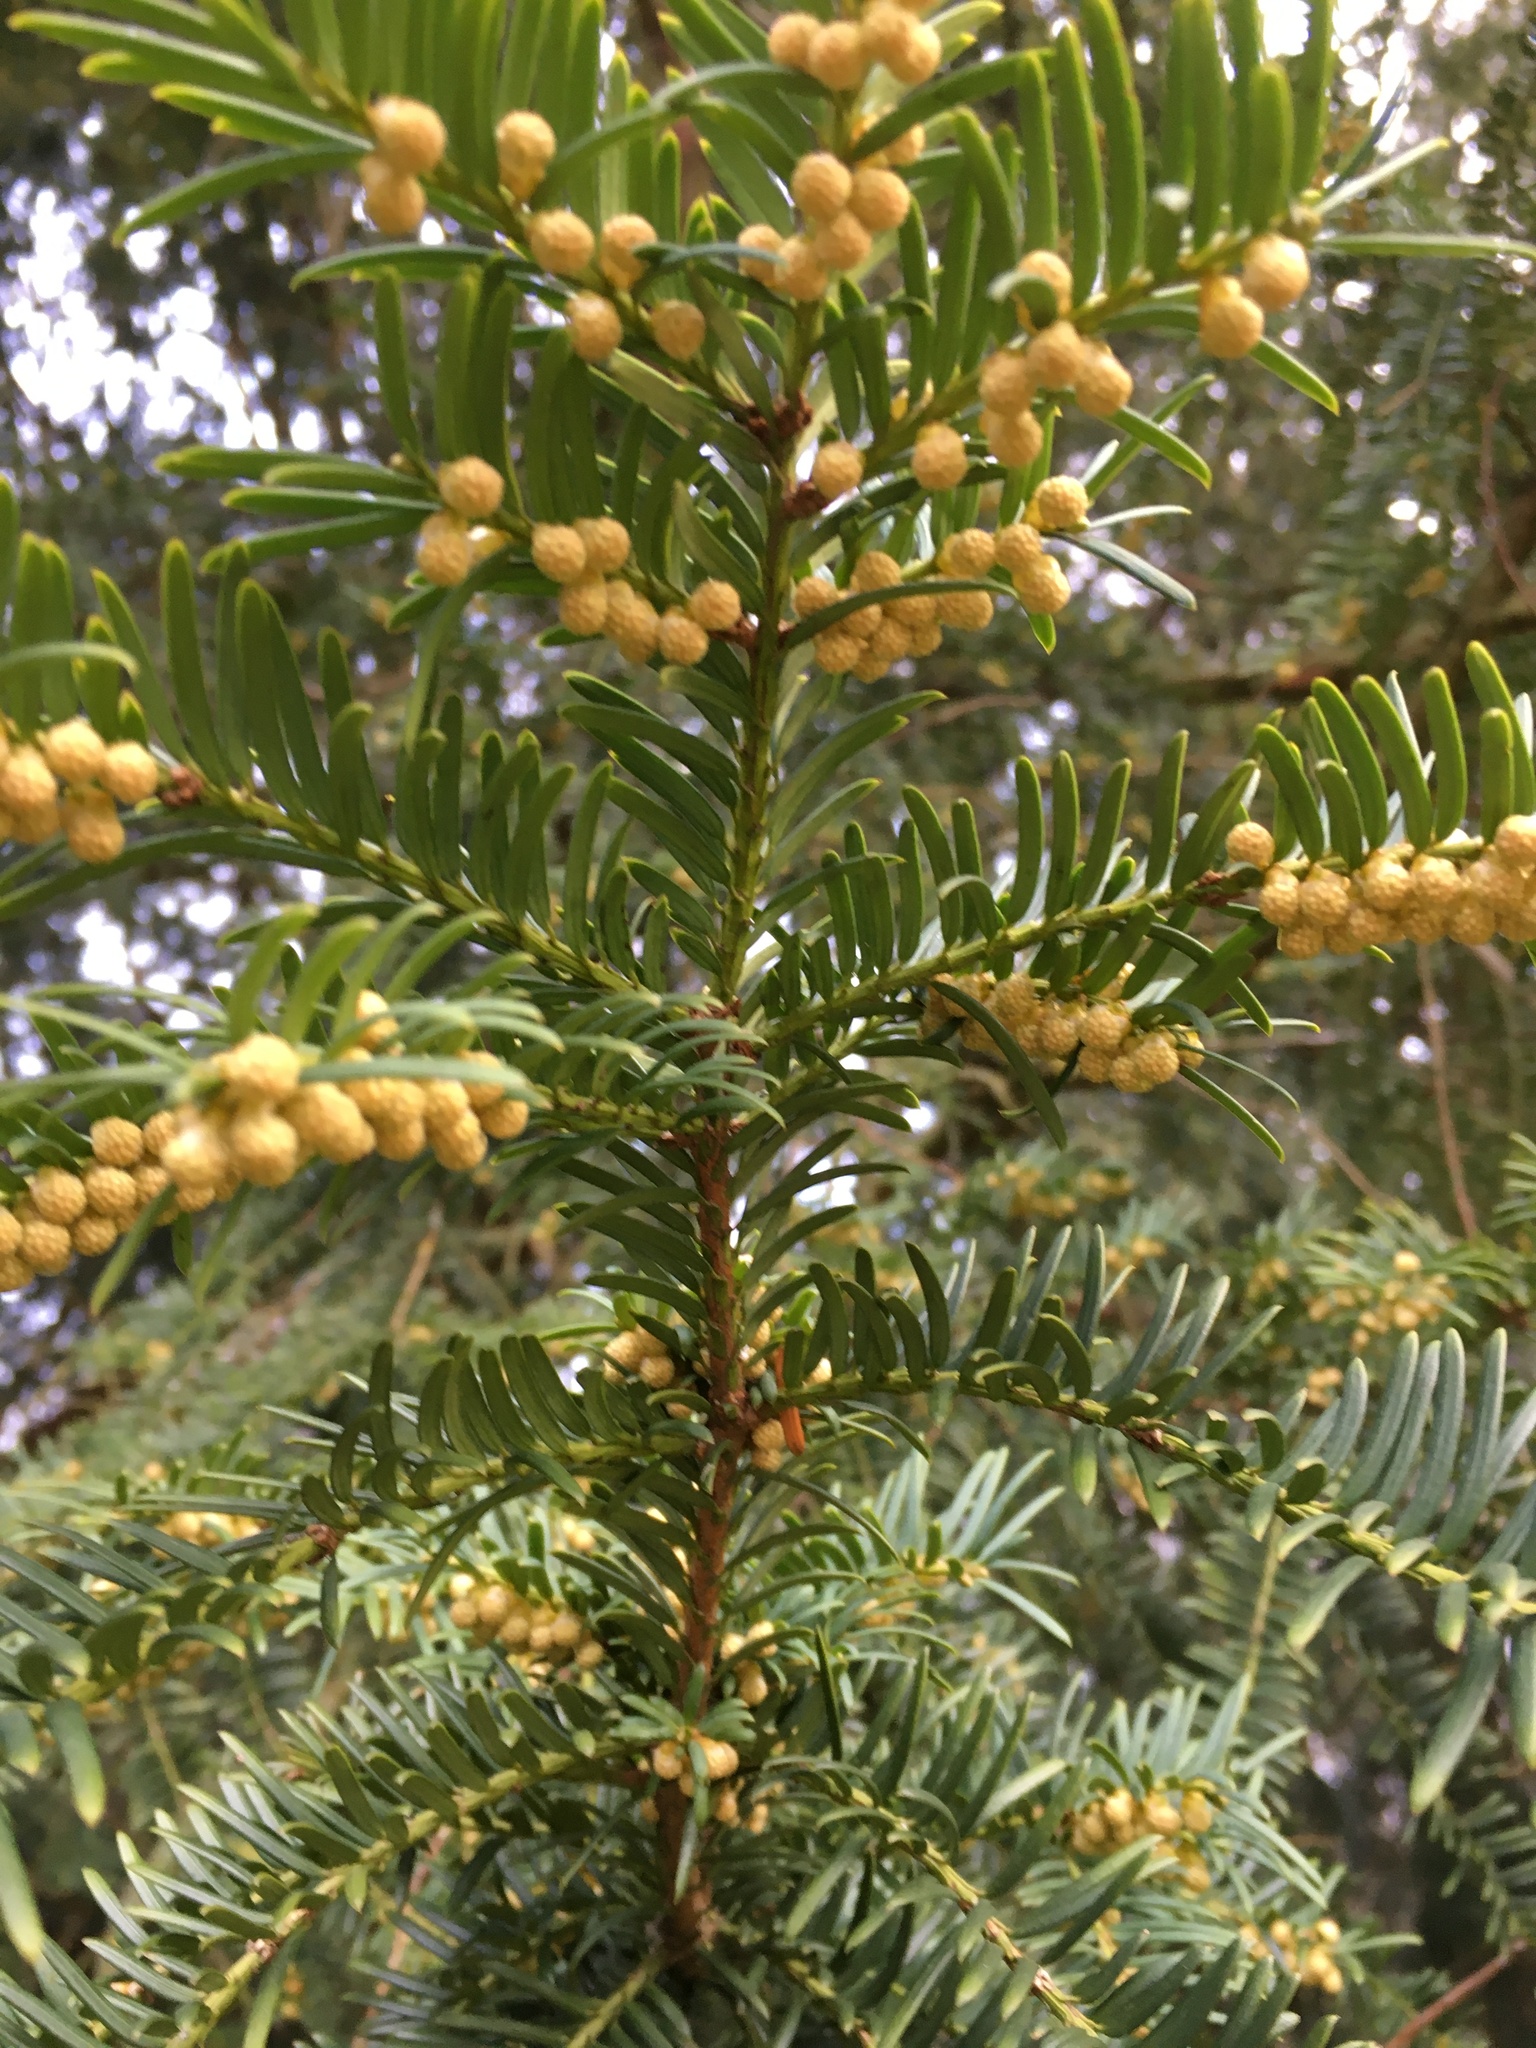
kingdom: Plantae
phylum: Tracheophyta
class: Pinopsida
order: Pinales
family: Taxaceae
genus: Taxus
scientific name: Taxus baccata
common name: Yew
